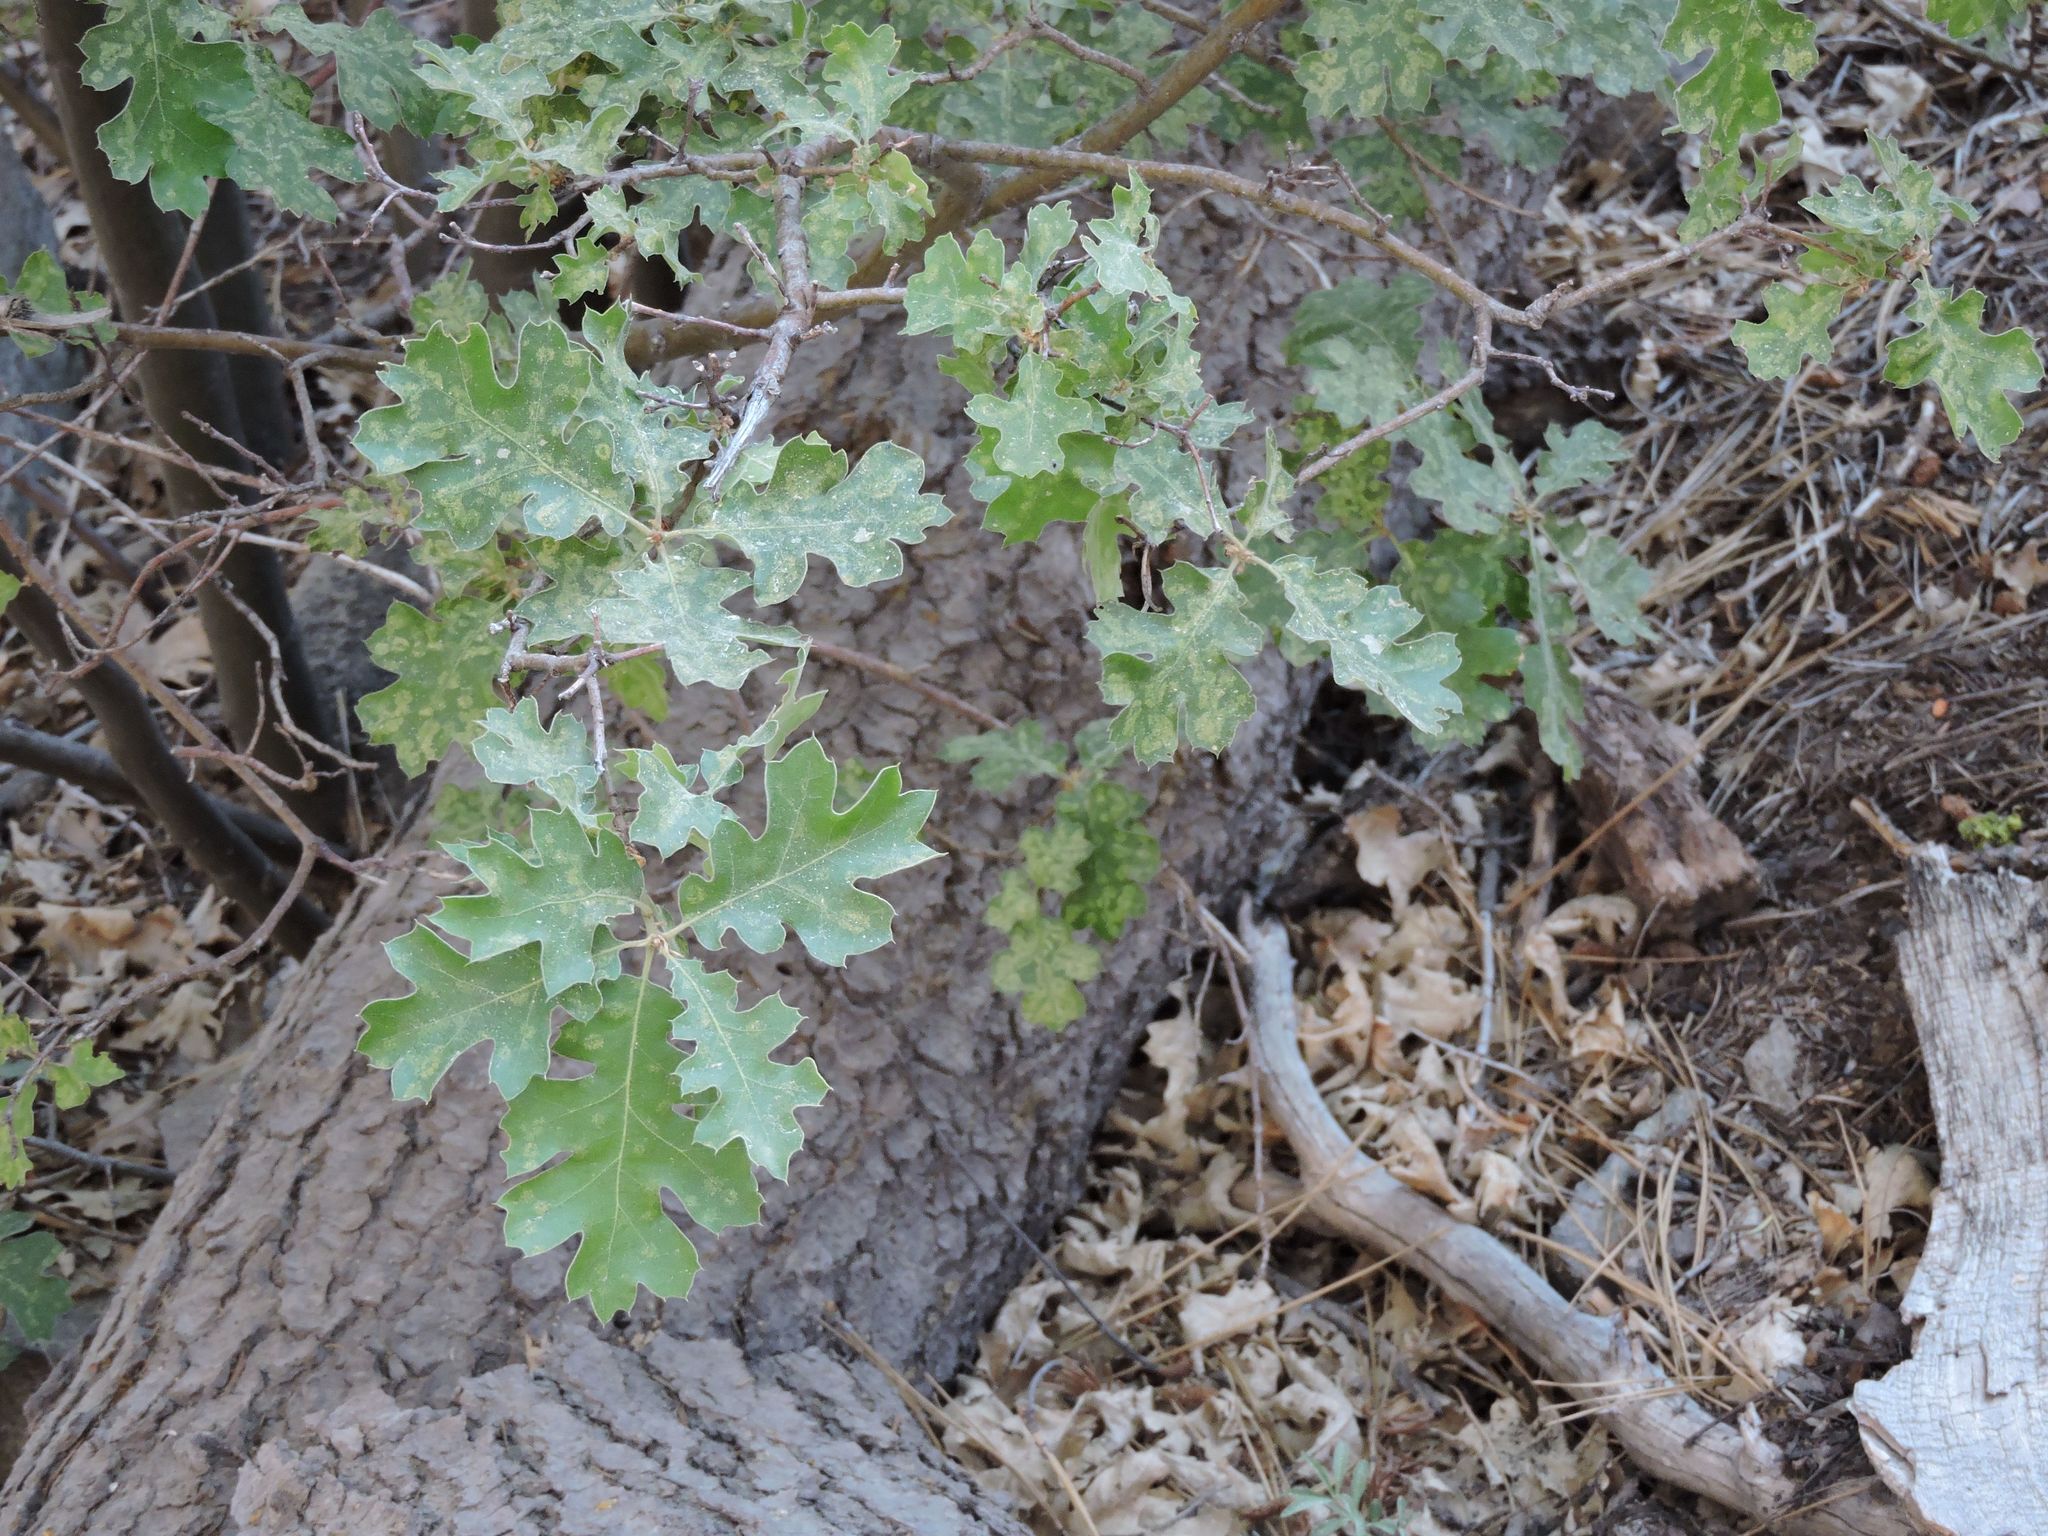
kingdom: Plantae
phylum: Tracheophyta
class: Magnoliopsida
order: Fagales
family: Fagaceae
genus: Quercus
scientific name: Quercus kelloggii
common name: California black oak
